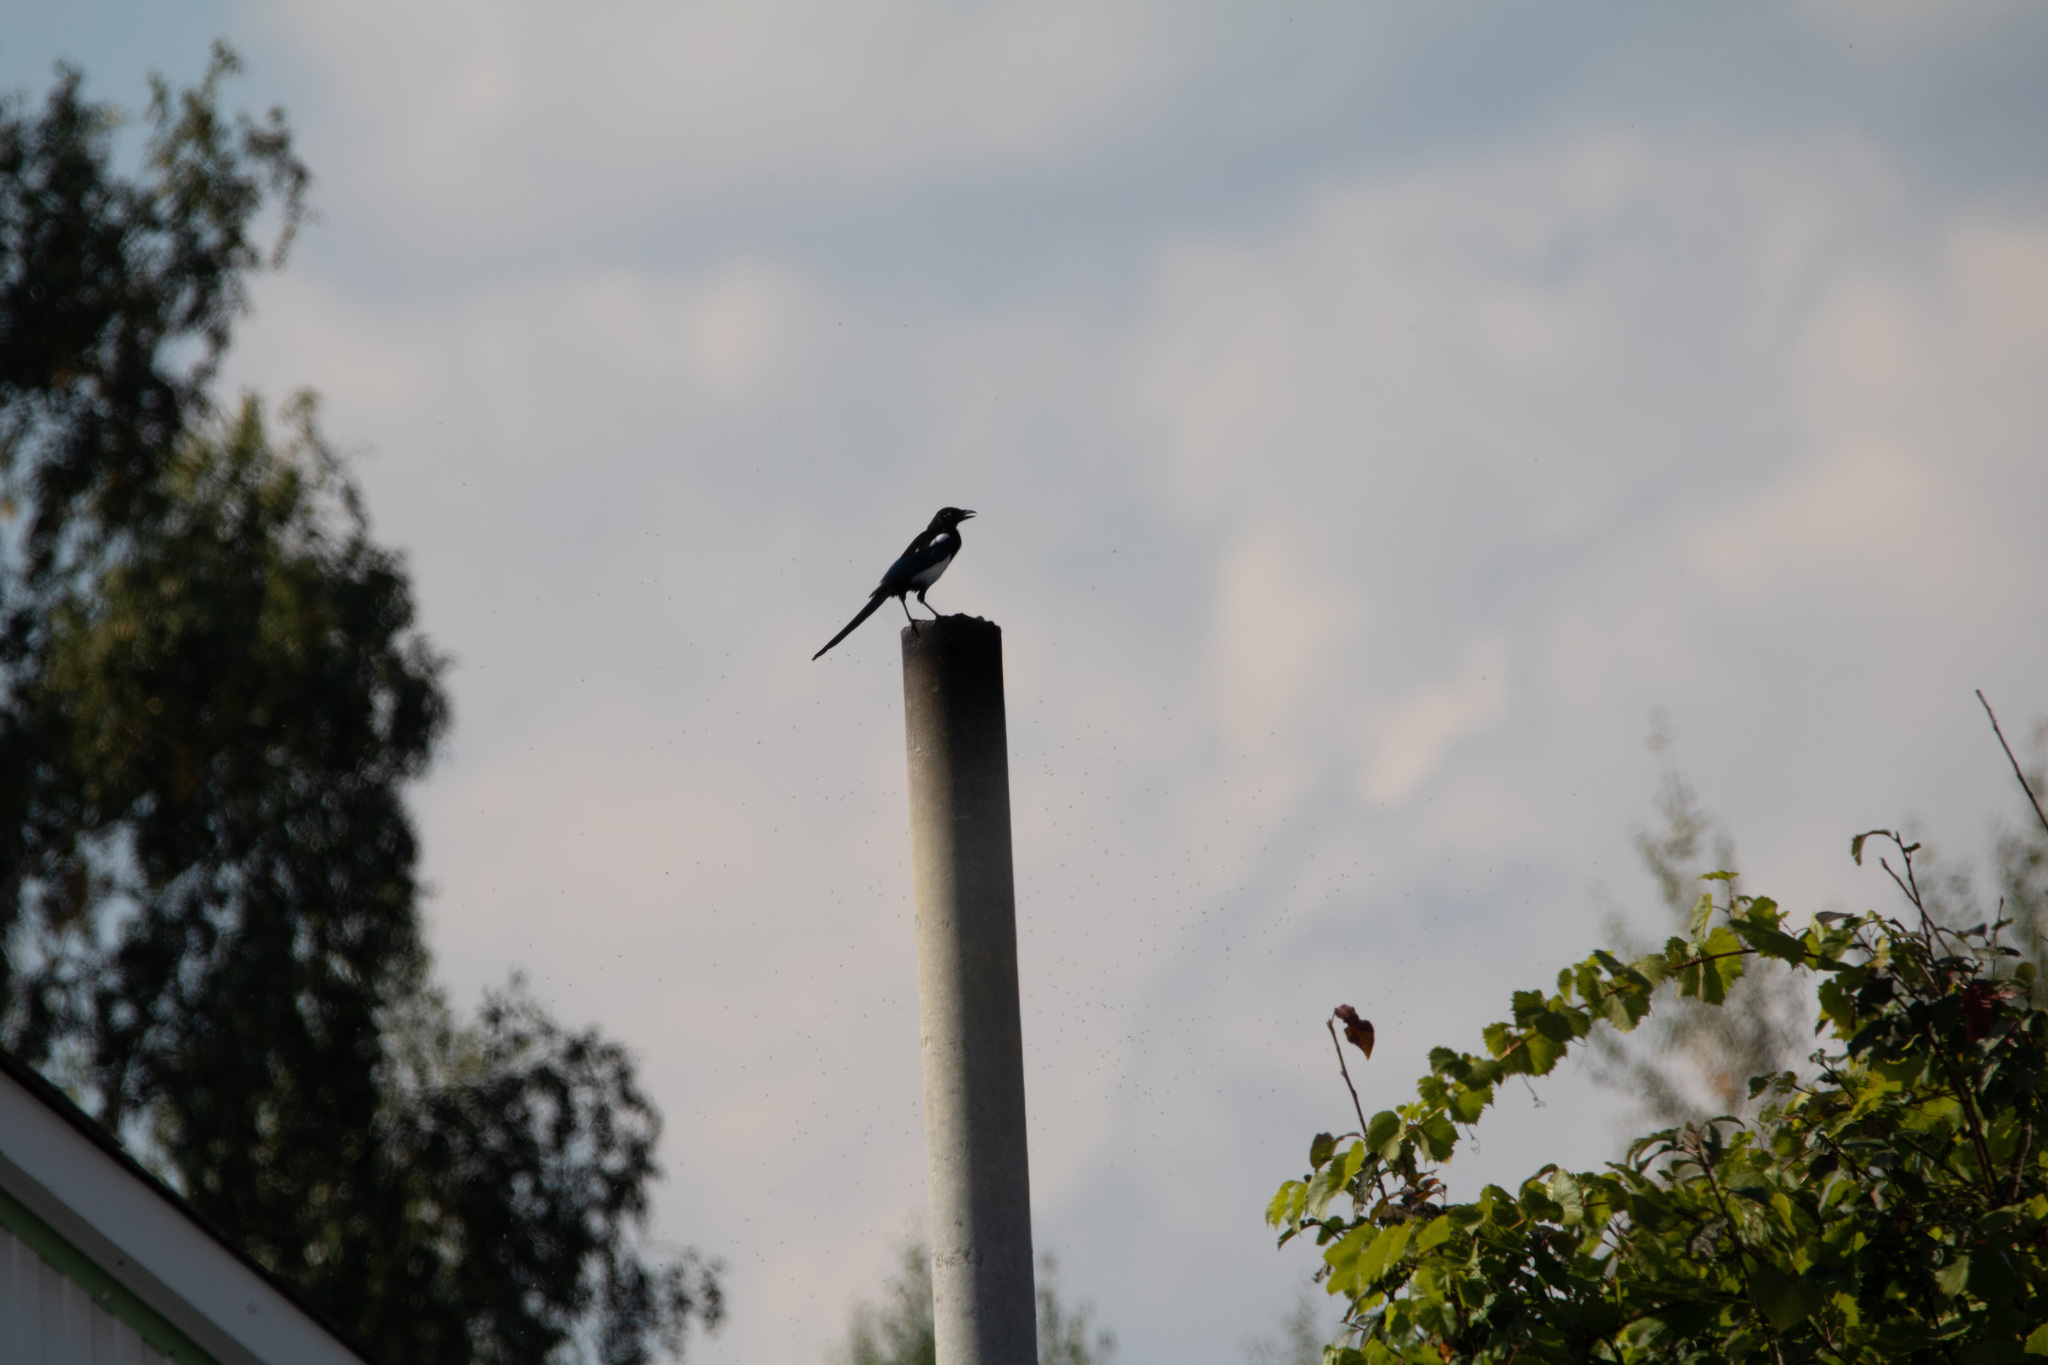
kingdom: Animalia
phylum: Chordata
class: Aves
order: Passeriformes
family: Corvidae
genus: Pica
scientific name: Pica pica
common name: Eurasian magpie
